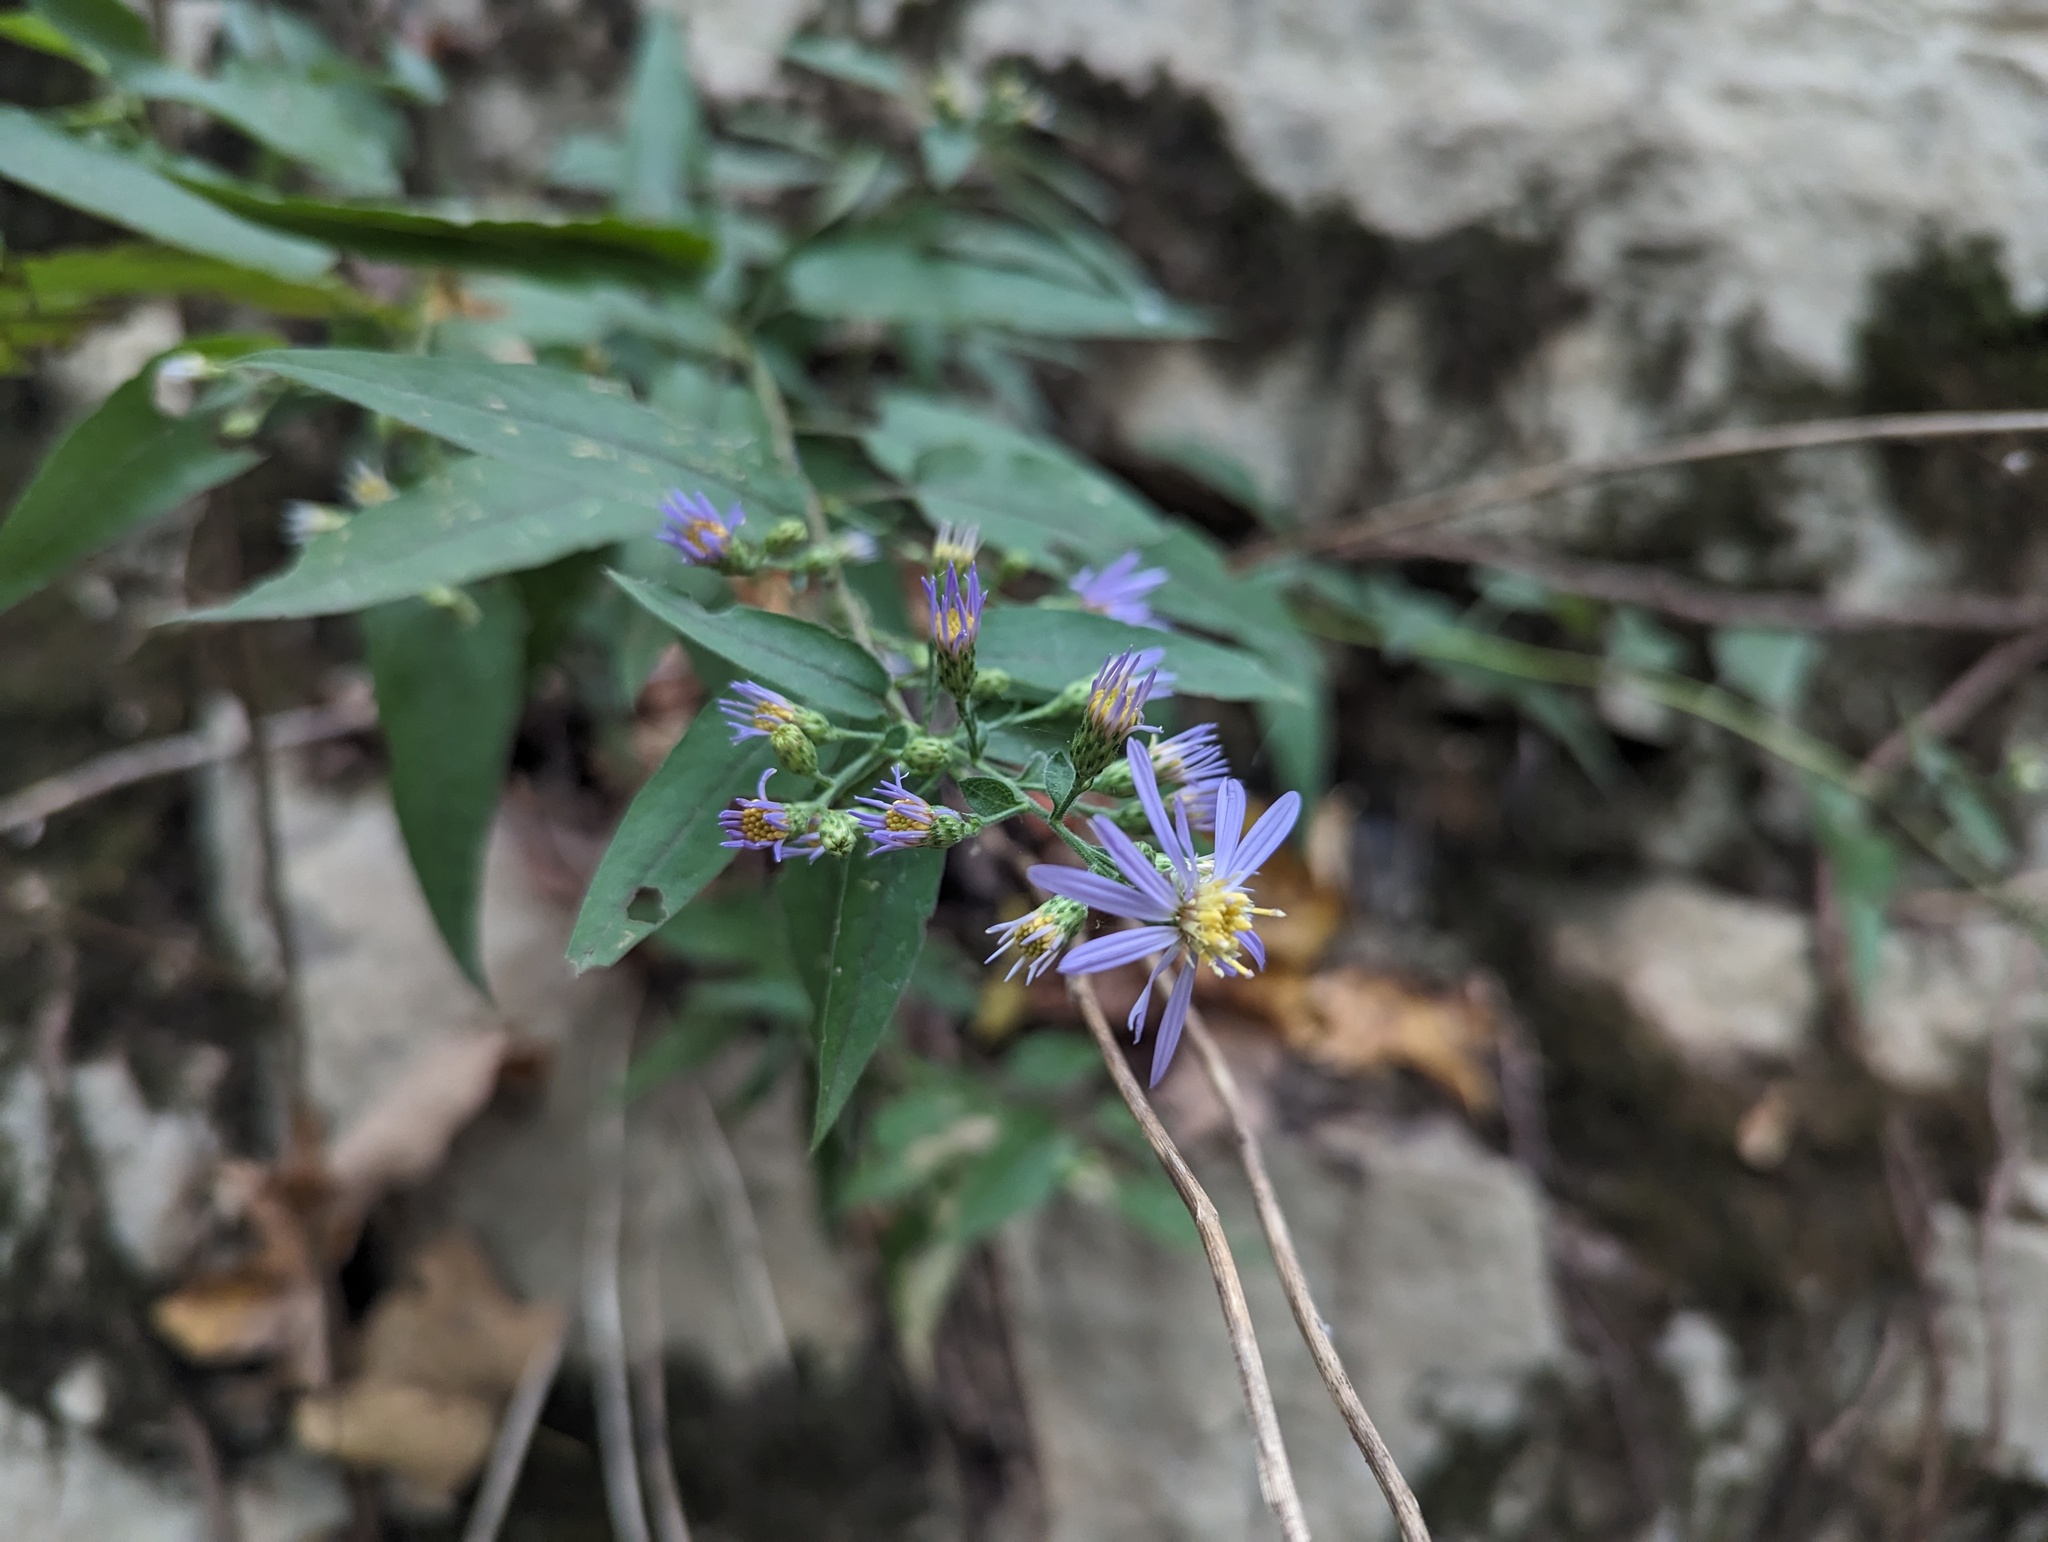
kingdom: Plantae
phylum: Tracheophyta
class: Magnoliopsida
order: Asterales
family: Asteraceae
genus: Symphyotrichum
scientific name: Symphyotrichum shortii
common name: Short's aster
